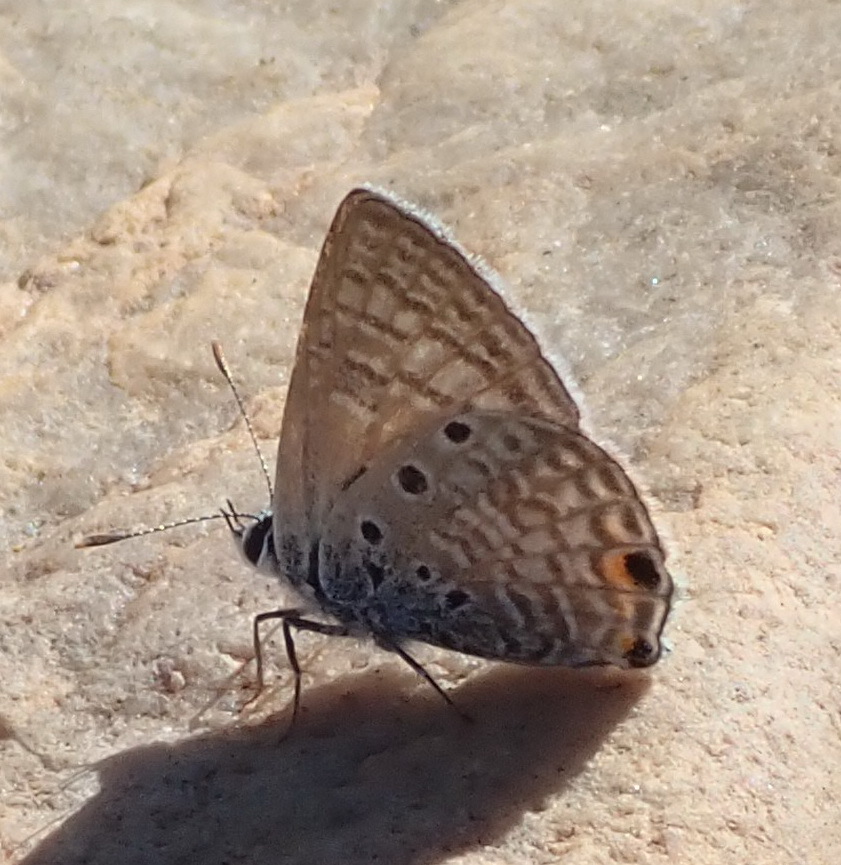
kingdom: Animalia
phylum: Arthropoda
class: Insecta
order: Lepidoptera
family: Lycaenidae
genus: Anthene
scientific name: Anthene amarah
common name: Black-striped hairtail
